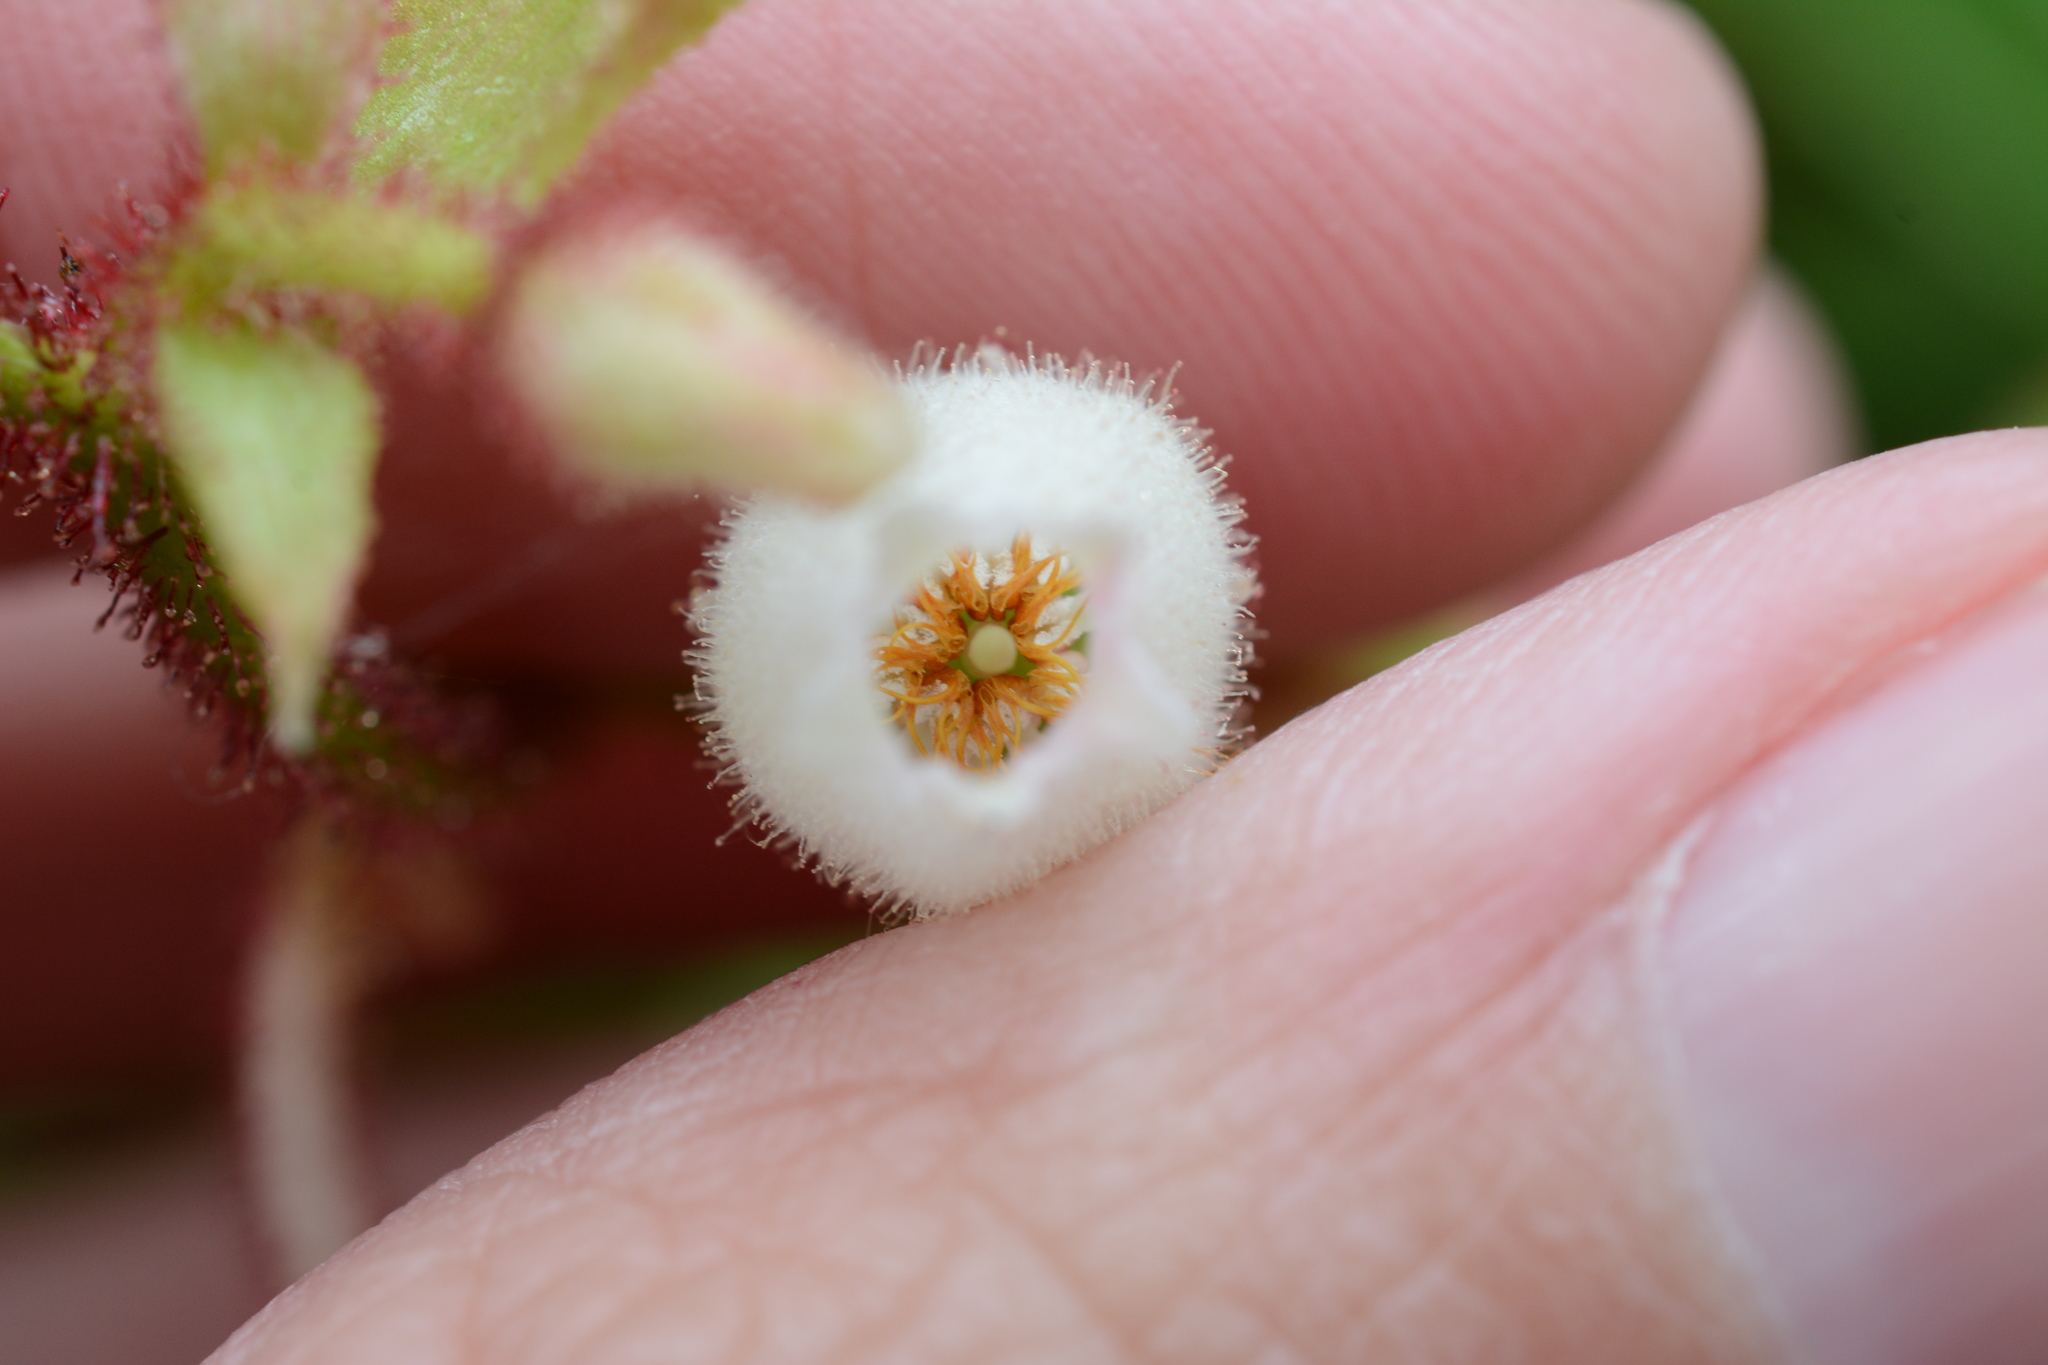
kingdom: Plantae
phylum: Tracheophyta
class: Magnoliopsida
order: Ericales
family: Ericaceae
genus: Gaultheria
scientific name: Gaultheria shallon
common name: Shallon
